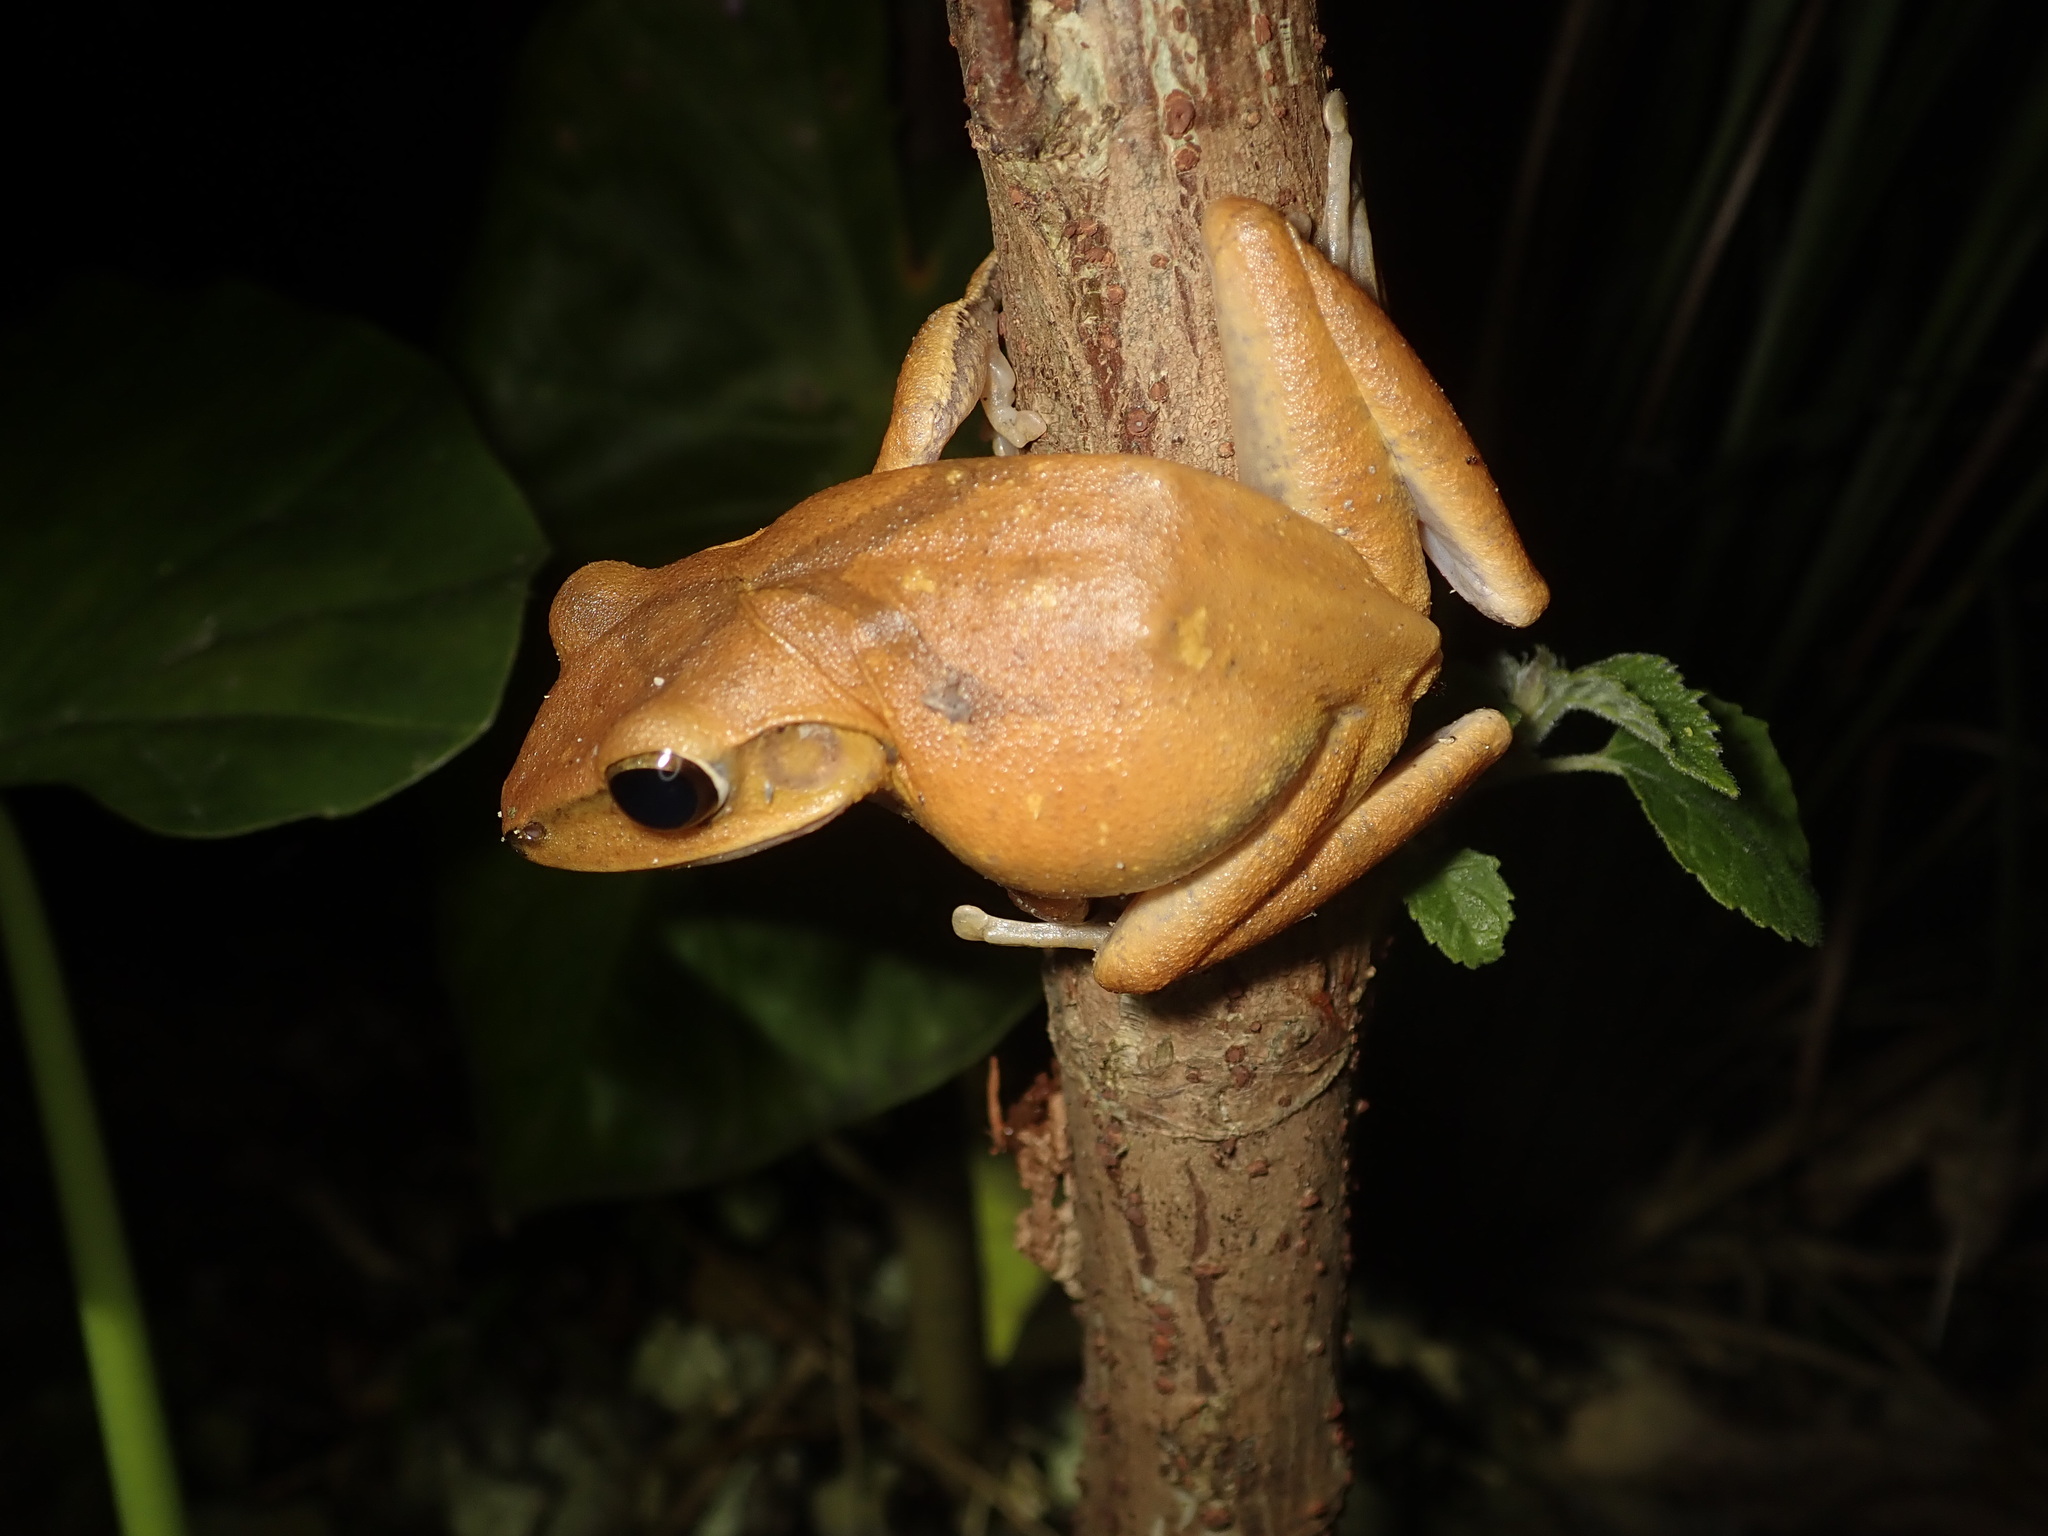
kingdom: Animalia
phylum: Chordata
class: Amphibia
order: Anura
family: Rhacophoridae
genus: Polypedates
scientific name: Polypedates megacephalus
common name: Hong kong whipping frog
